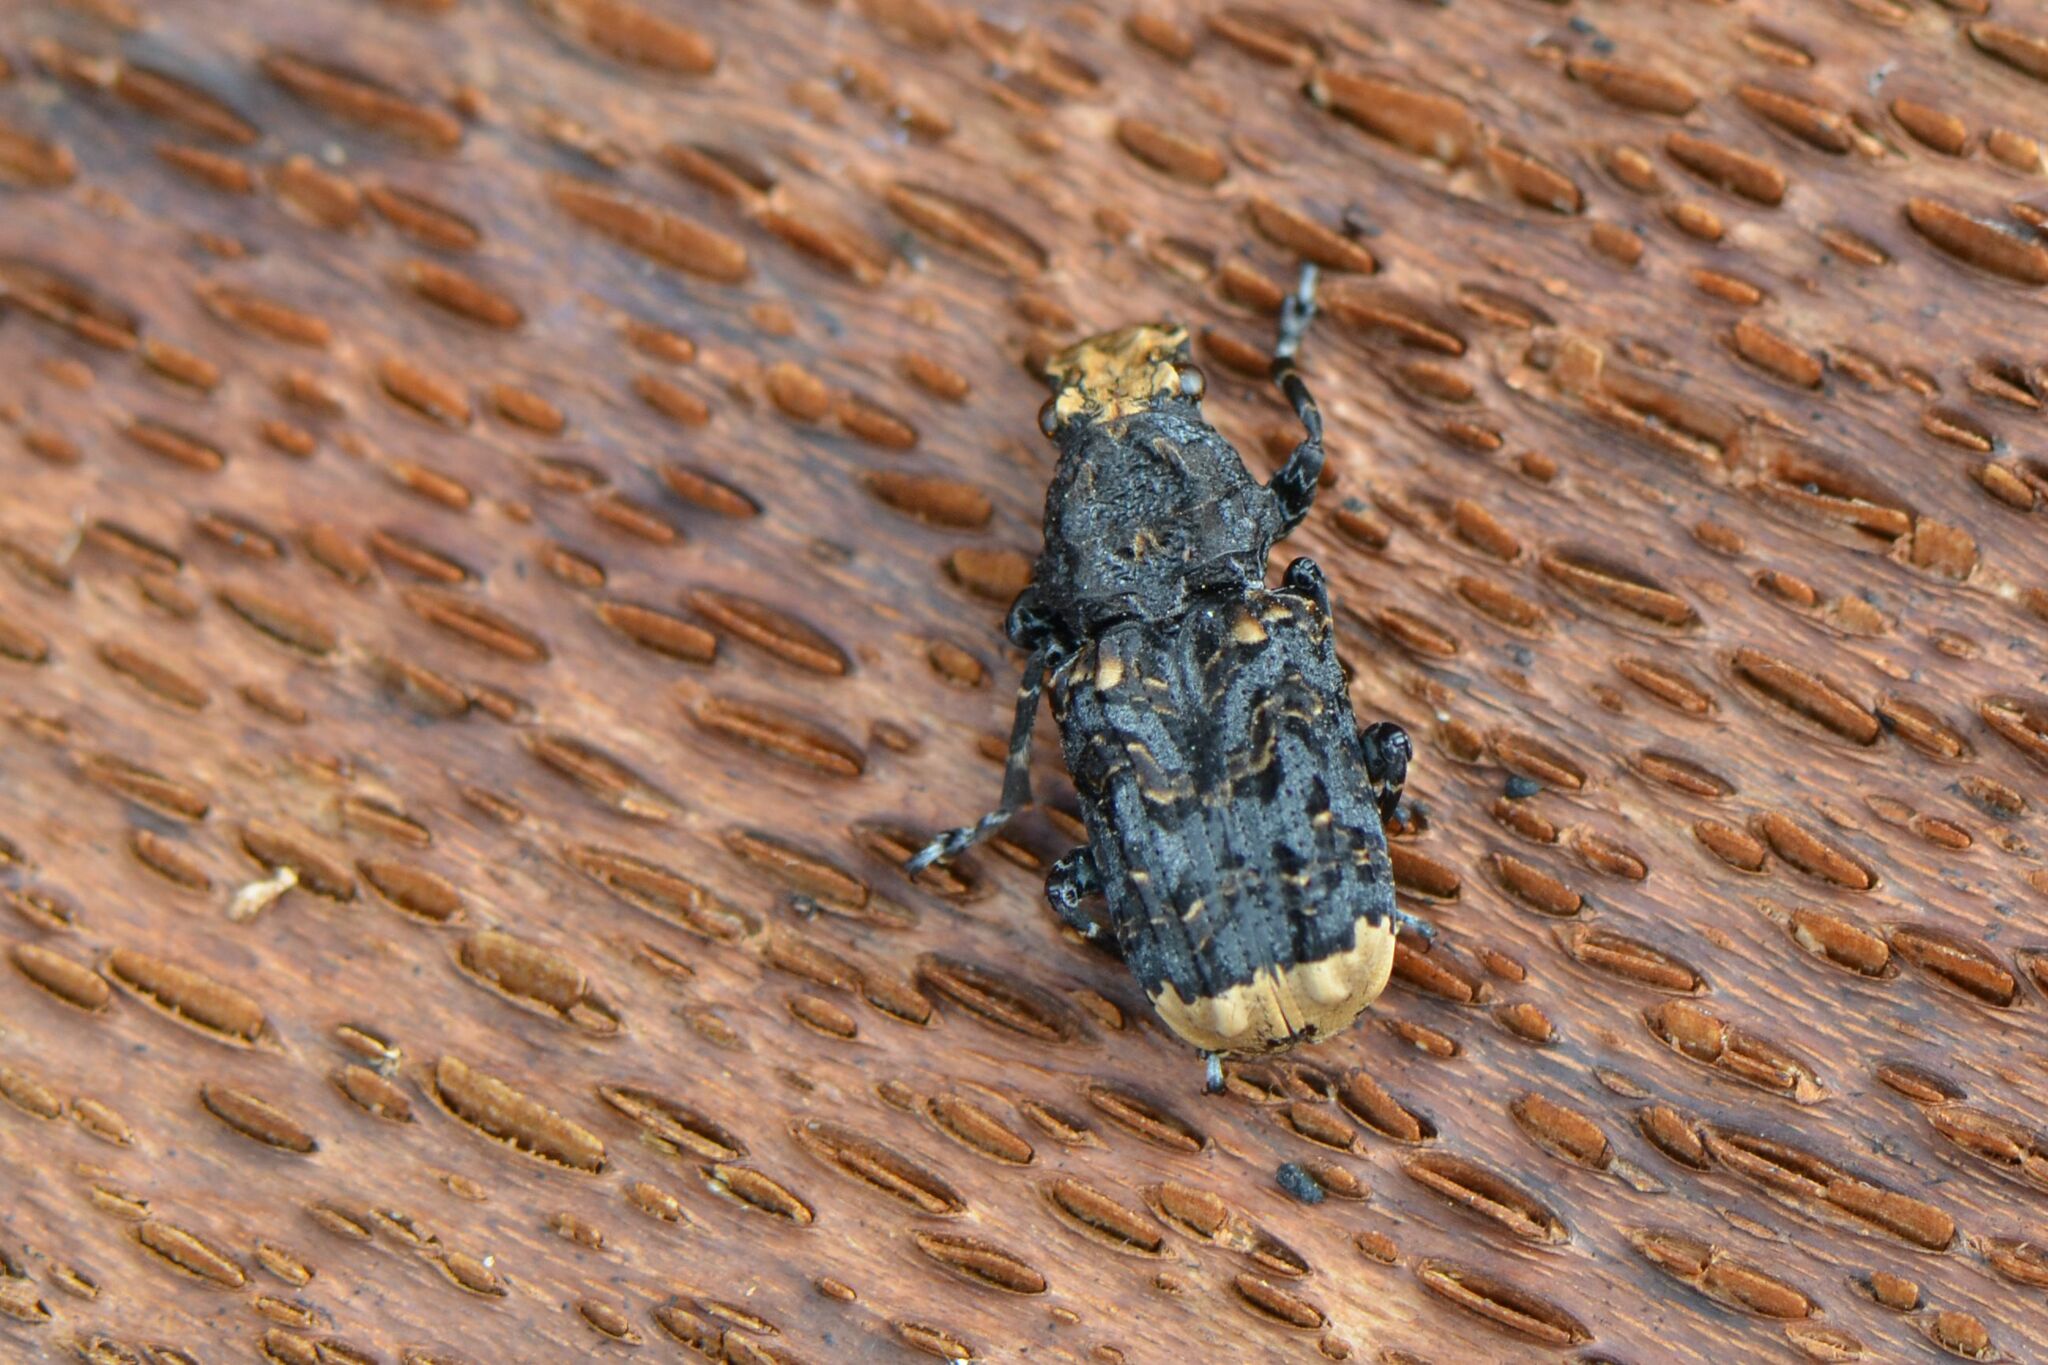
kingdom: Animalia
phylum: Arthropoda
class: Insecta
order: Coleoptera
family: Anthribidae
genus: Platyrhinus
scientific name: Platyrhinus resinosus
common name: Cramp-ball fungus weevil
